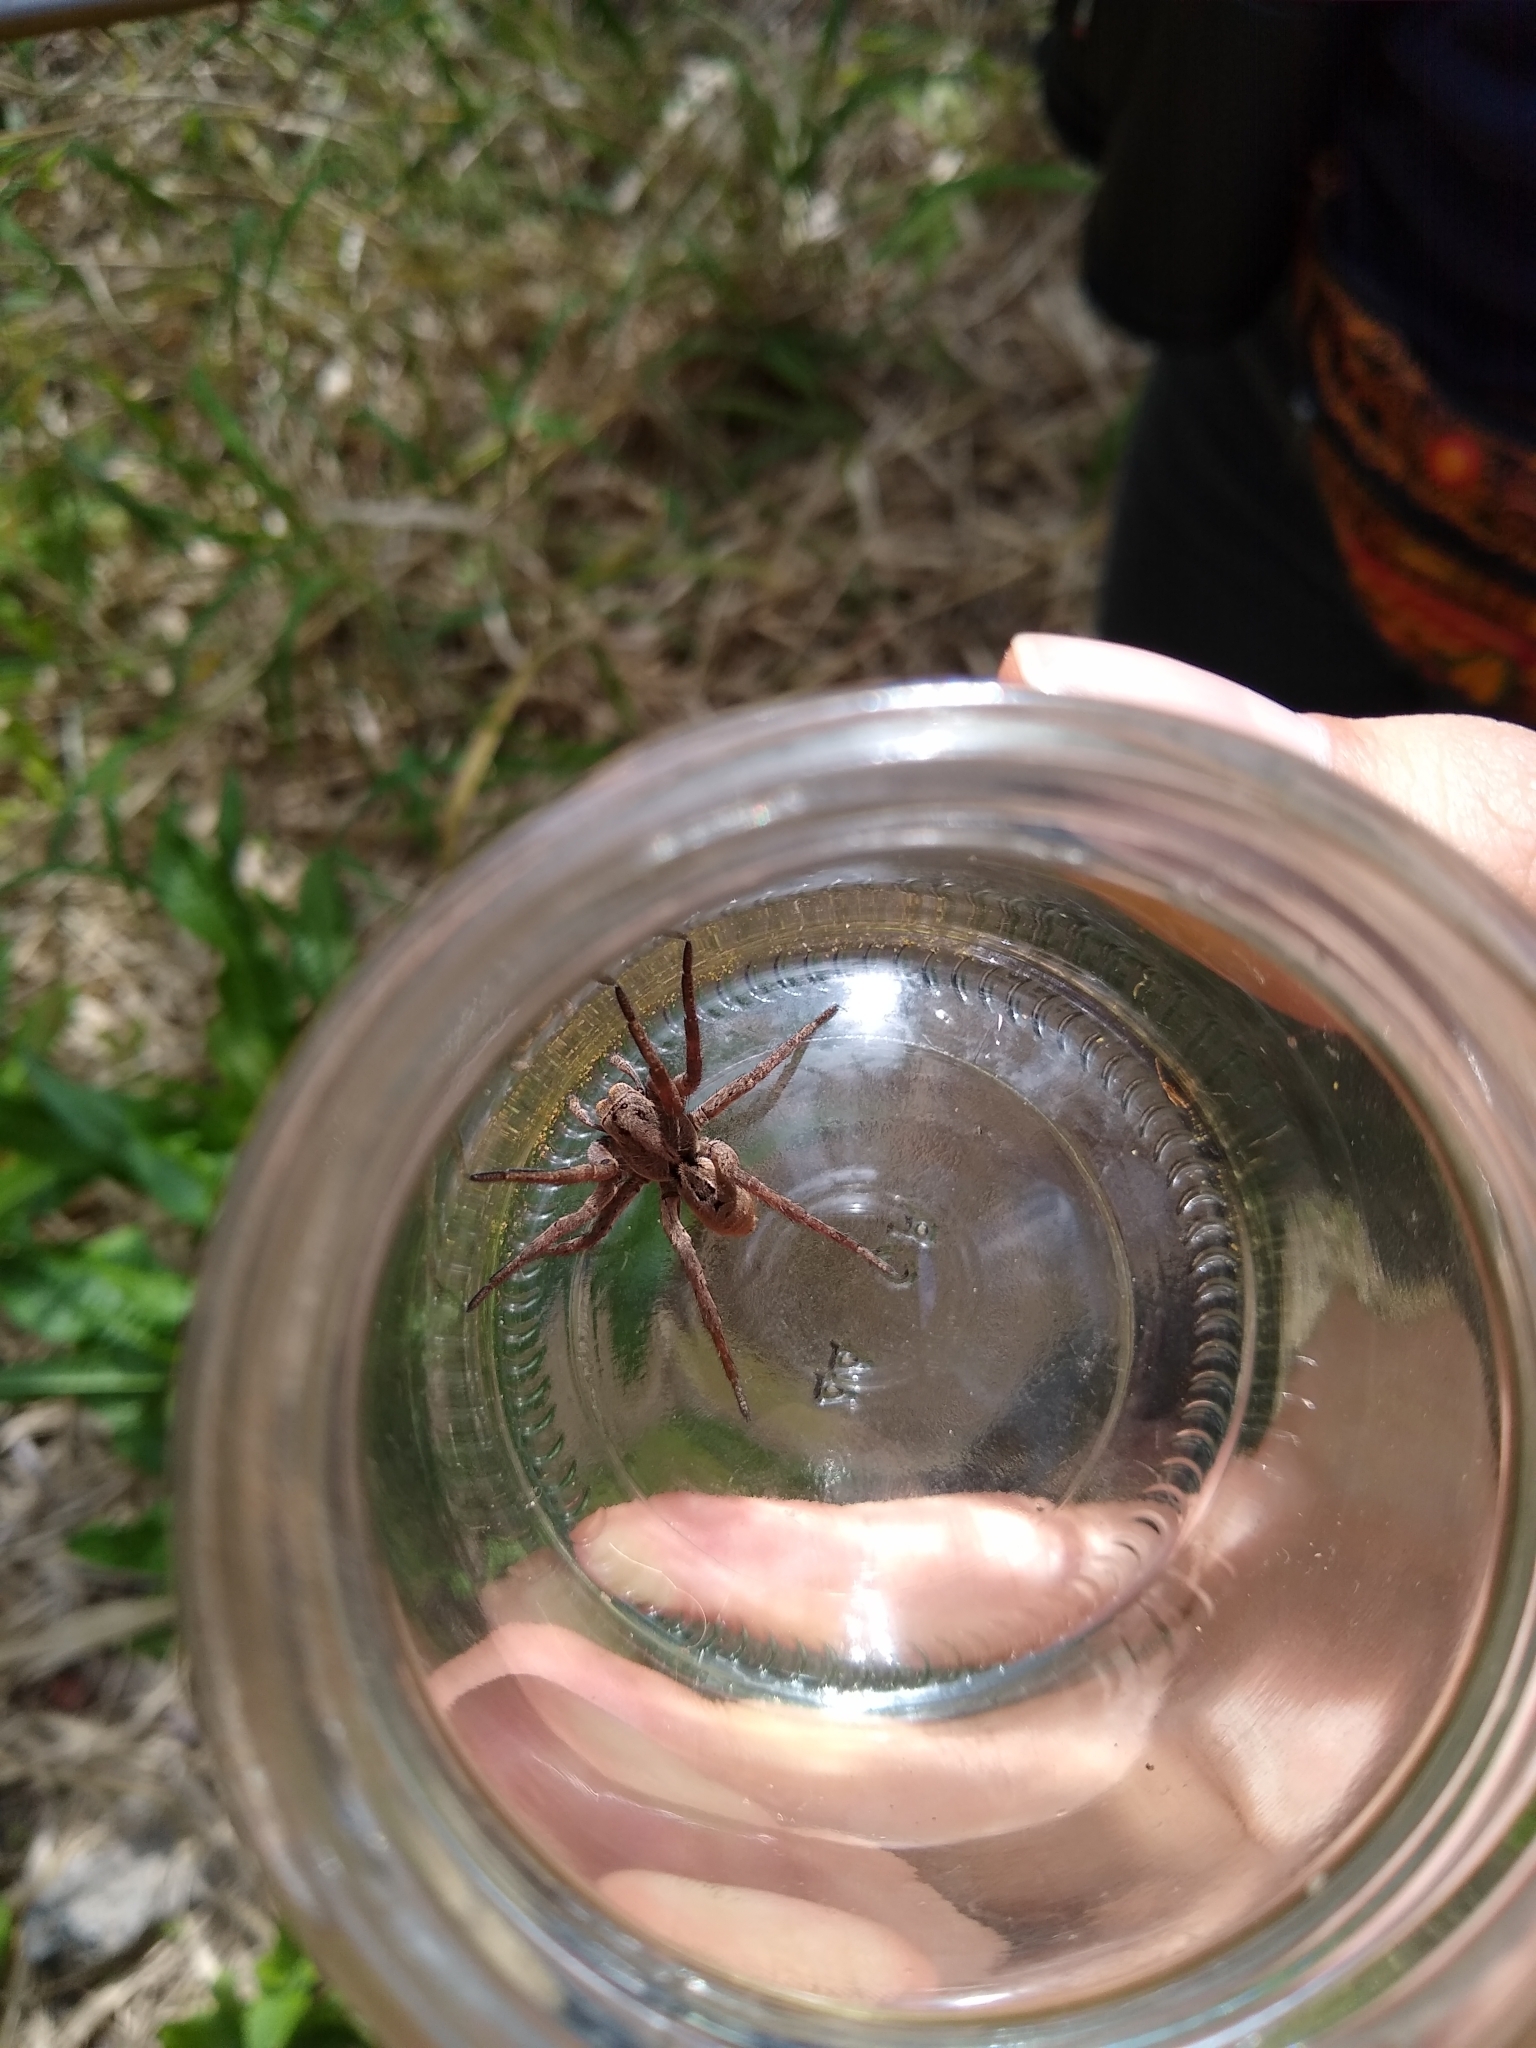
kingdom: Animalia
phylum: Arthropoda
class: Arachnida
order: Araneae
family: Lycosidae
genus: Lycosa
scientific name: Lycosa erythrognatha
